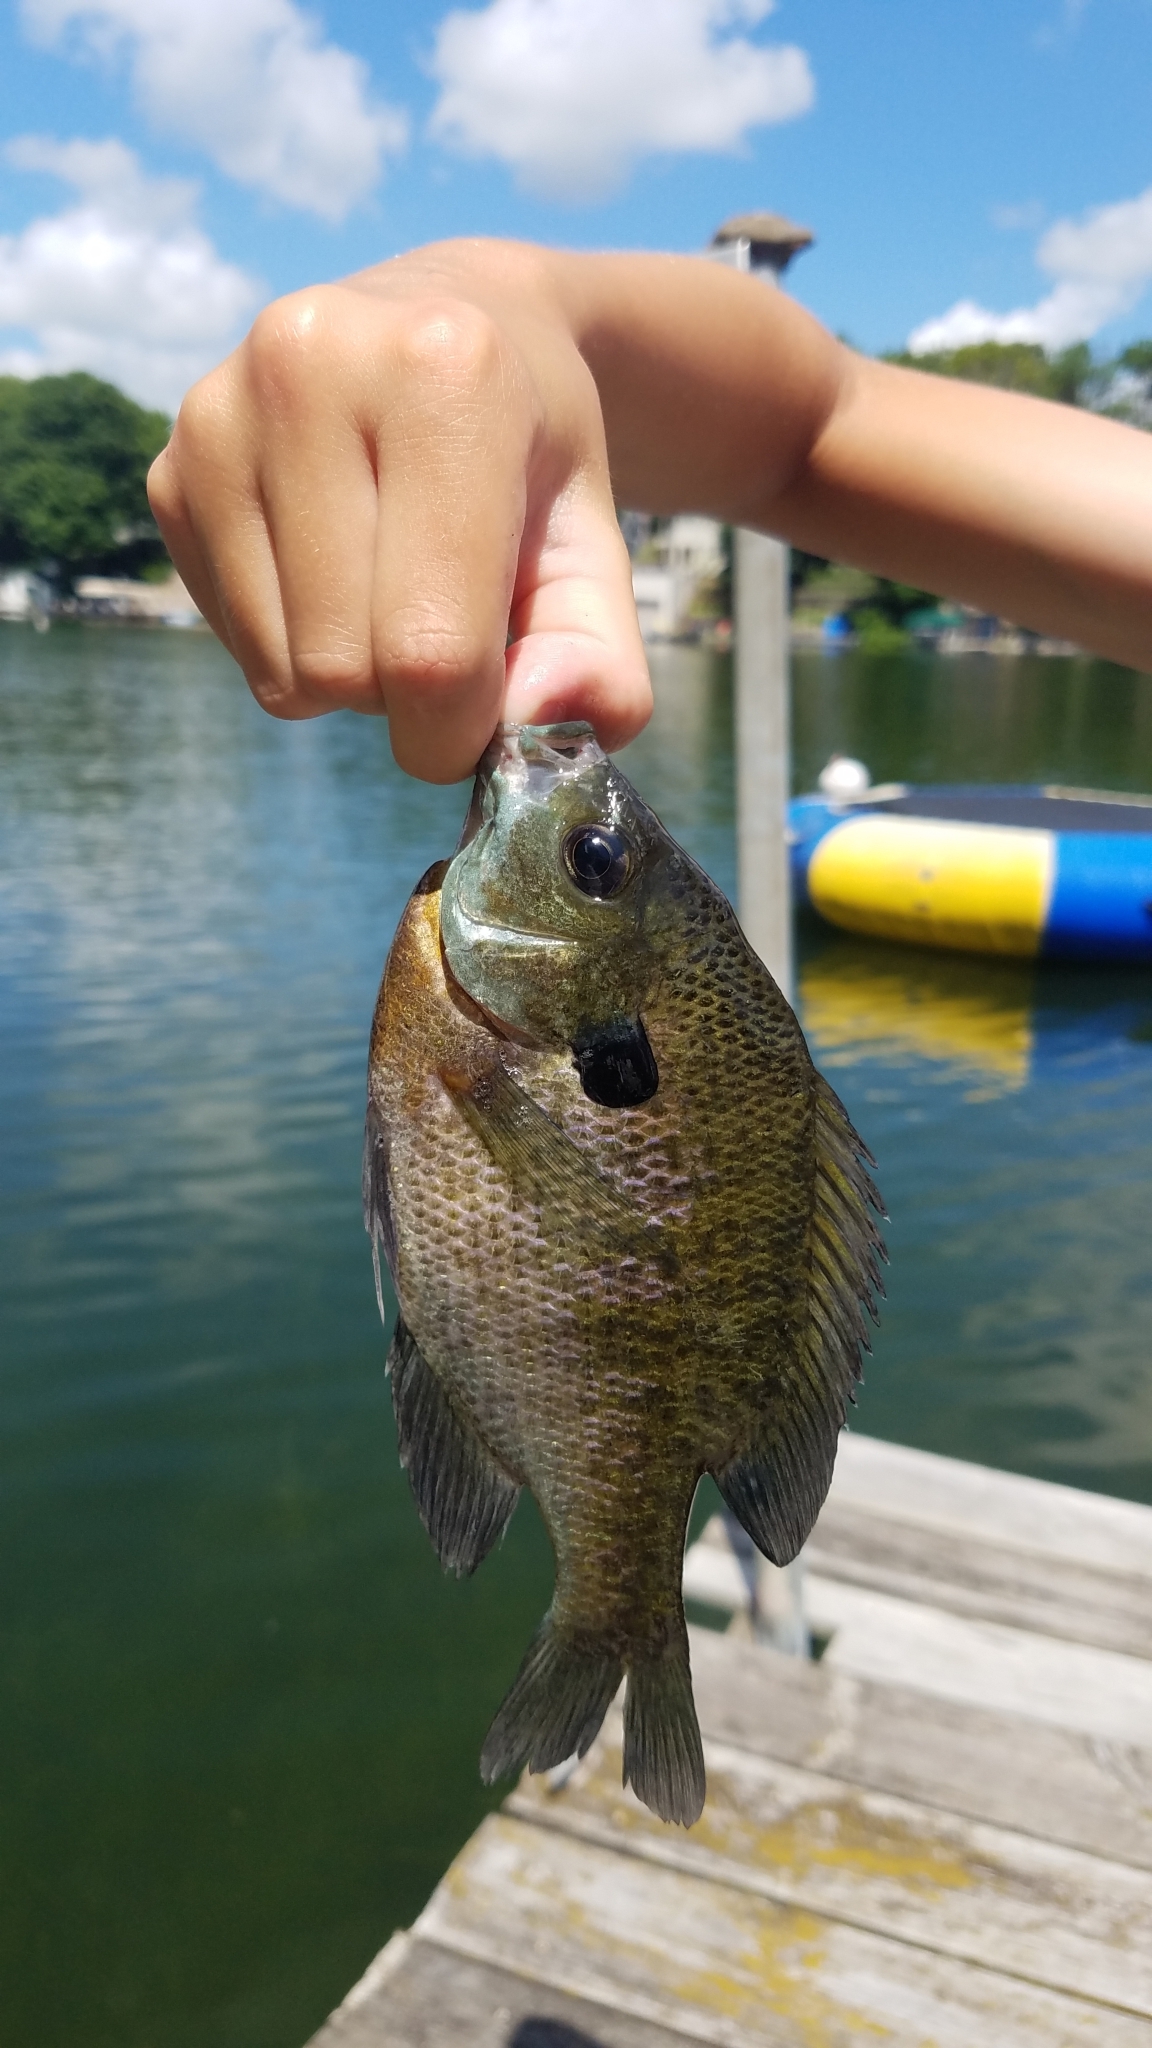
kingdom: Animalia
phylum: Chordata
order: Perciformes
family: Centrarchidae
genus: Lepomis
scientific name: Lepomis macrochirus
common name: Bluegill
